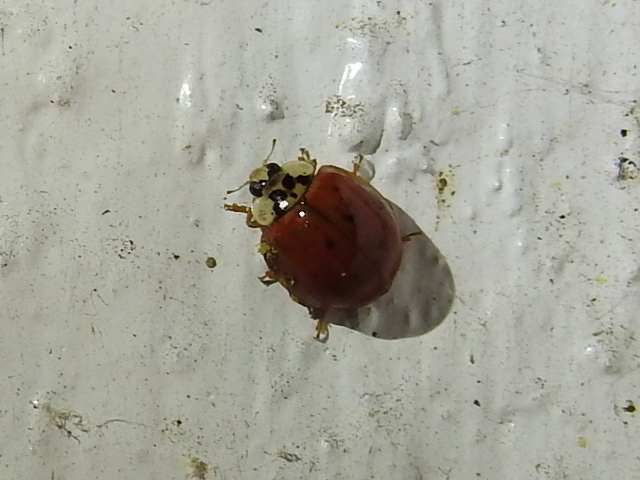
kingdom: Animalia
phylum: Arthropoda
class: Insecta
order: Coleoptera
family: Coccinellidae
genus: Harmonia
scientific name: Harmonia axyridis
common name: Harlequin ladybird
